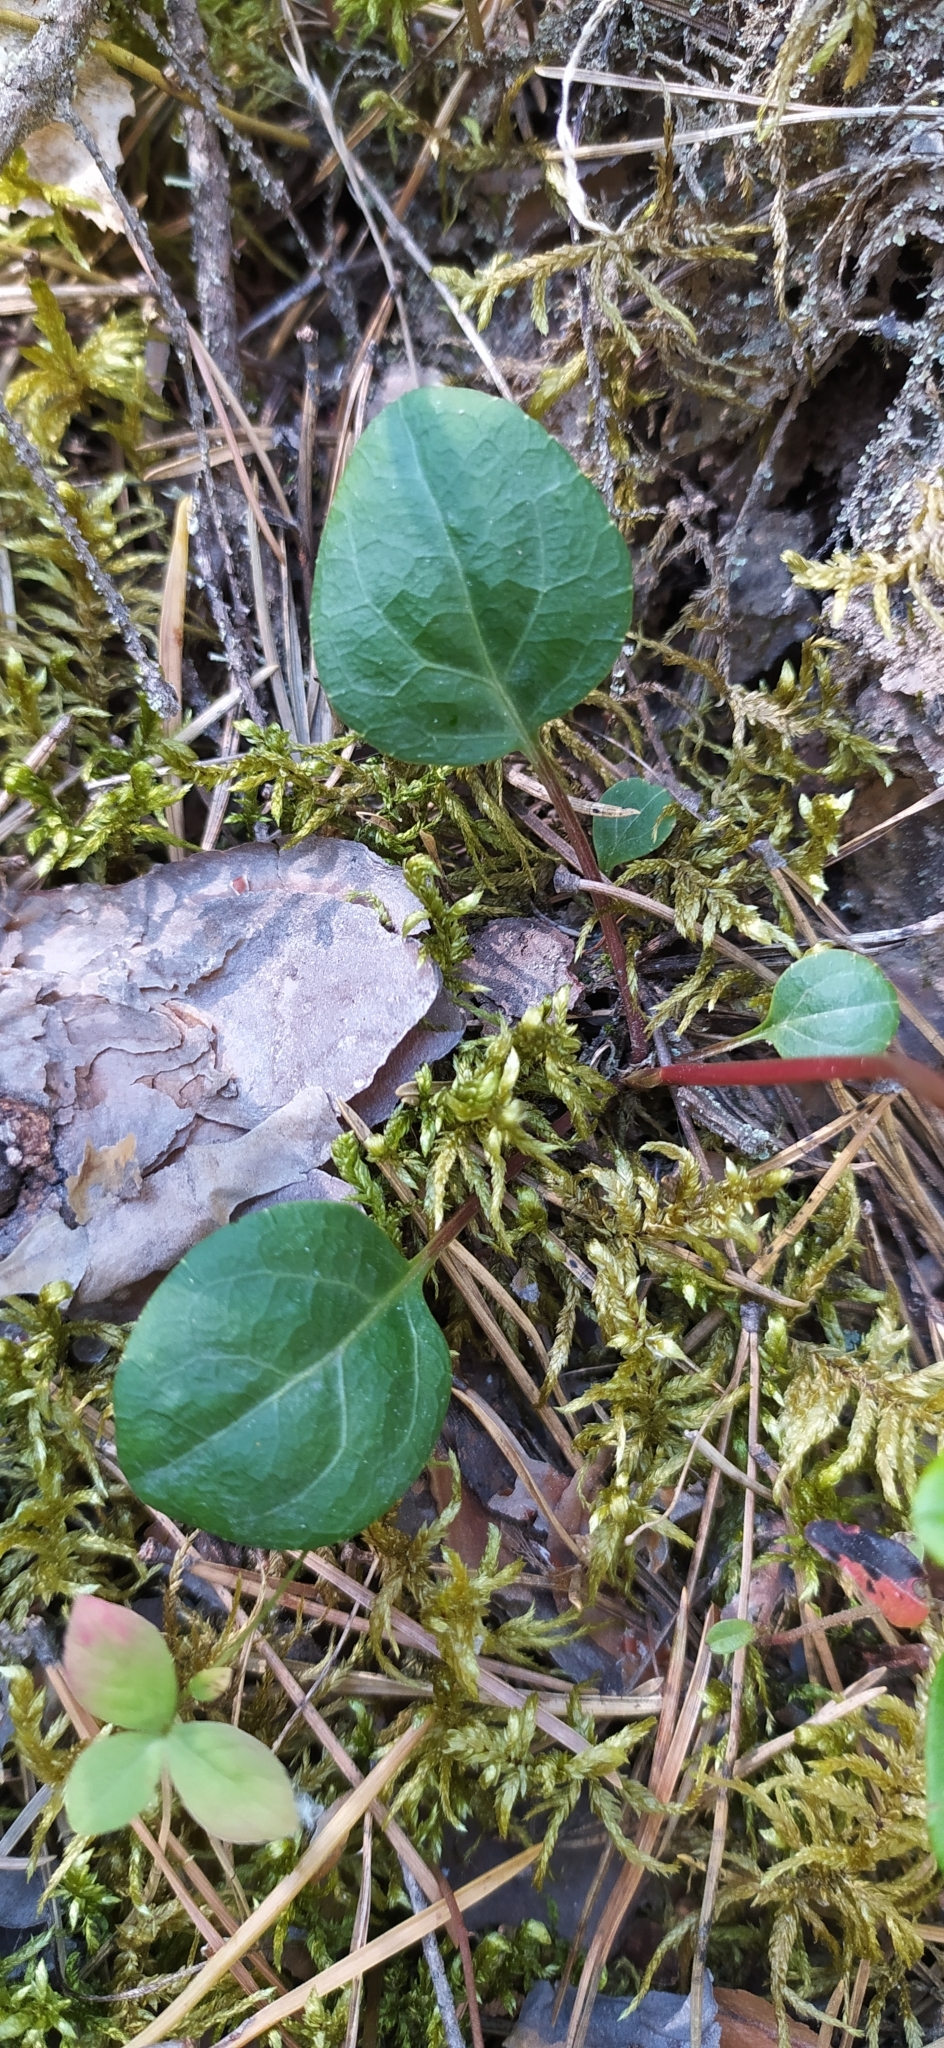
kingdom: Plantae
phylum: Tracheophyta
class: Magnoliopsida
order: Ericales
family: Ericaceae
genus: Pyrola
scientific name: Pyrola chlorantha
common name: Green wintergreen
